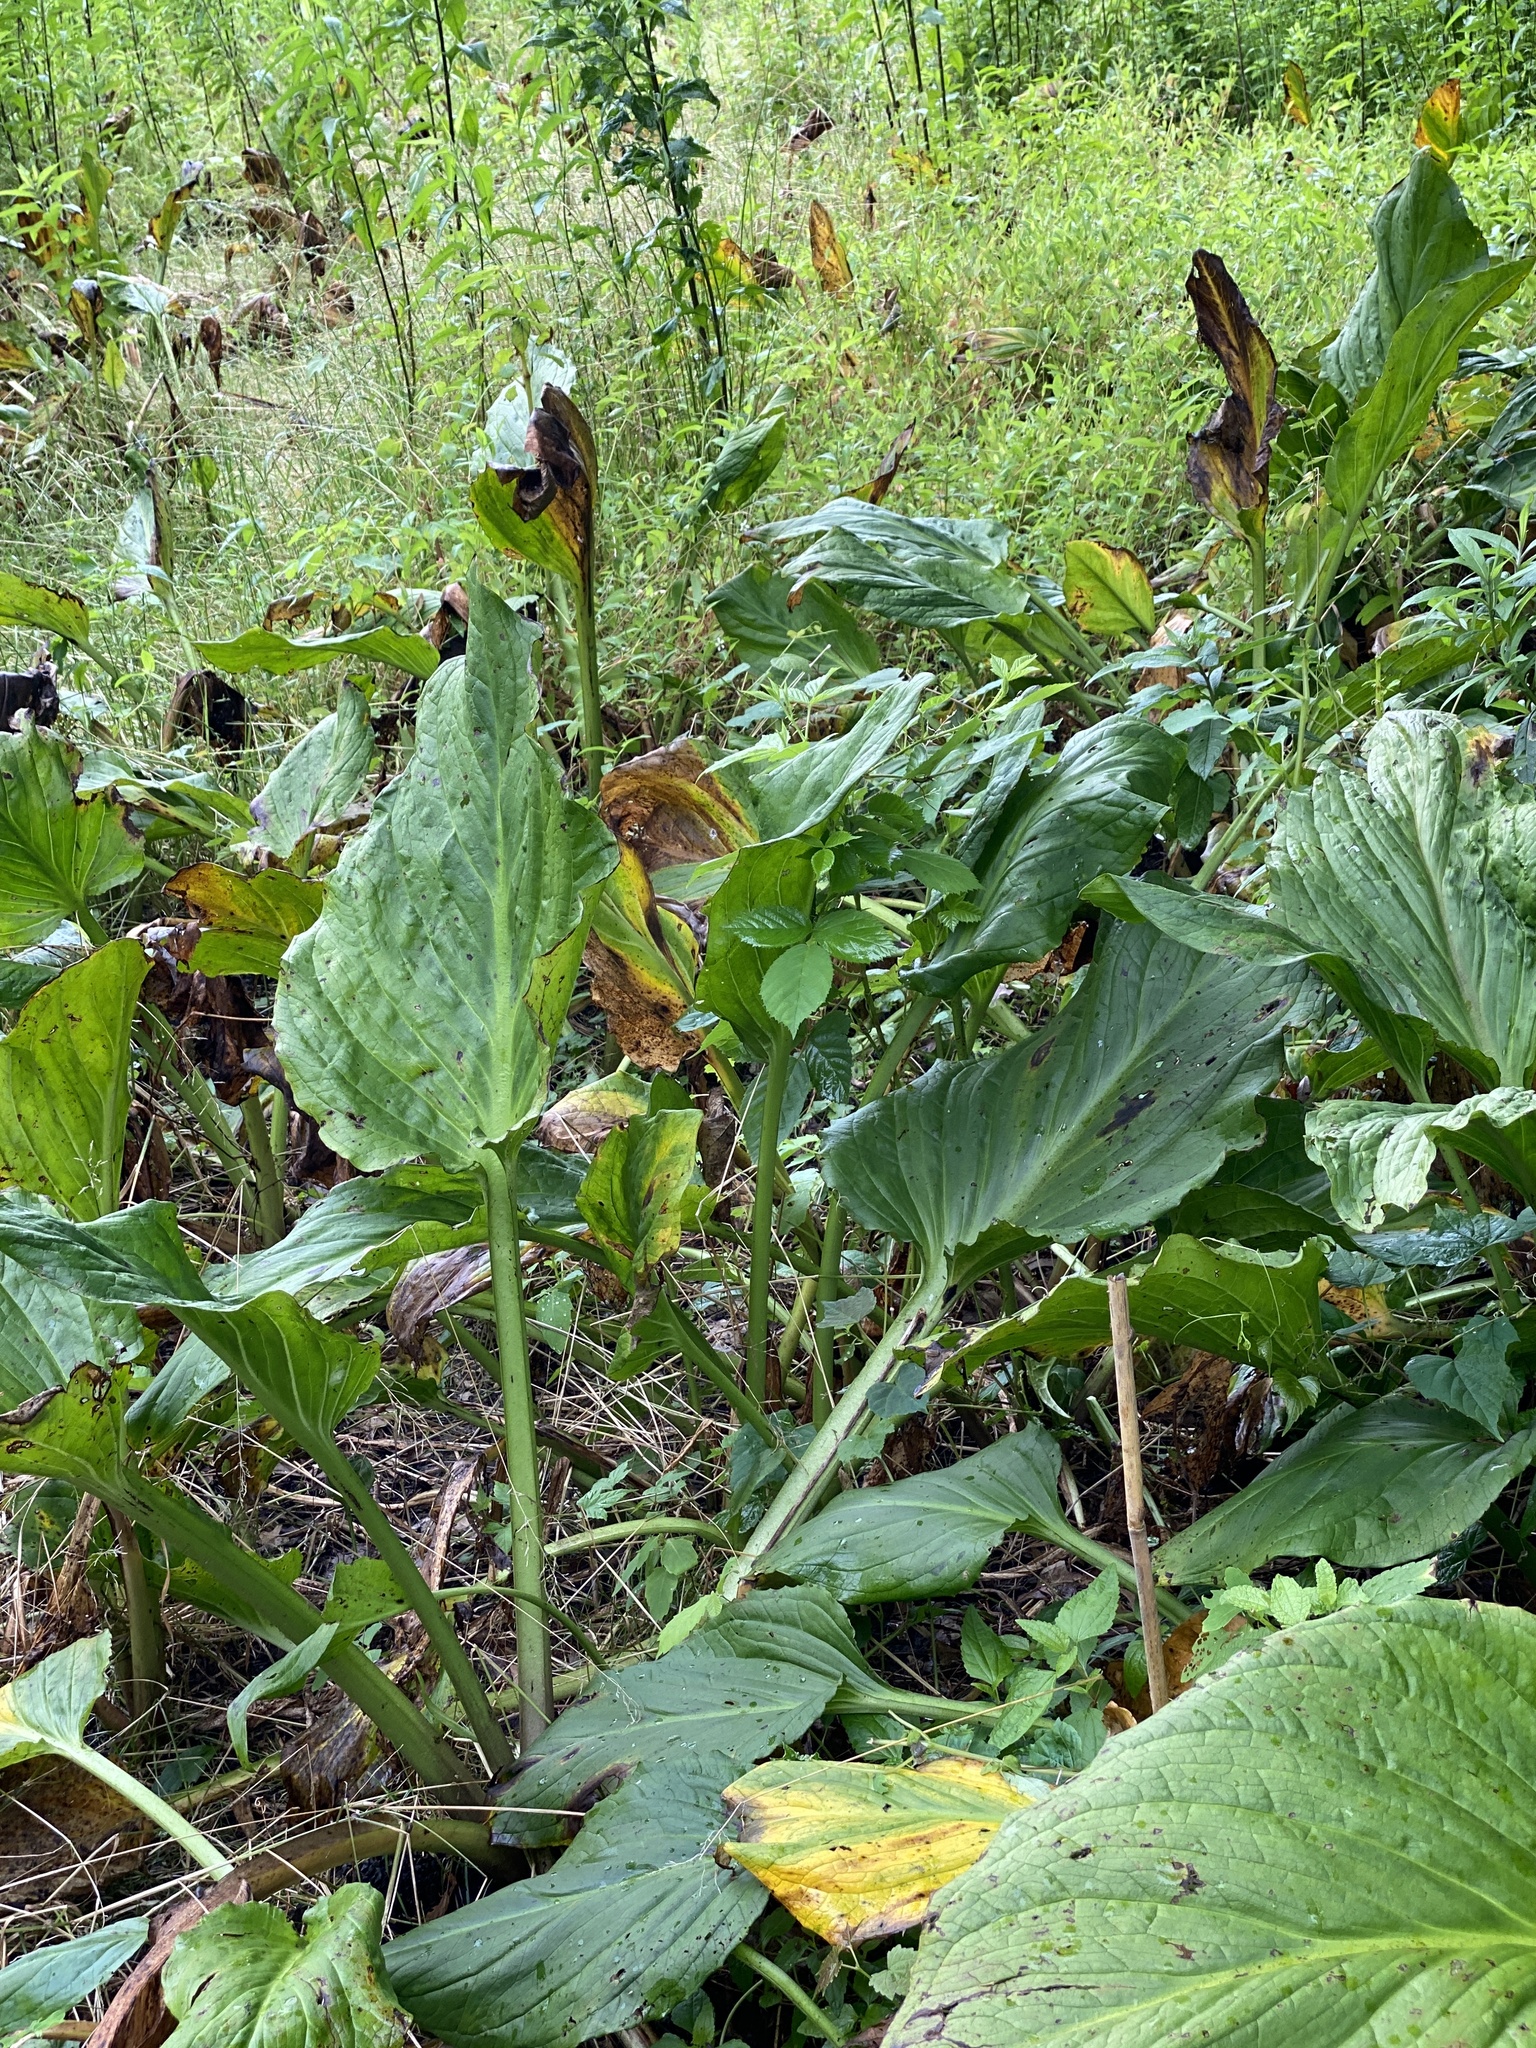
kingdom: Plantae
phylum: Tracheophyta
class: Liliopsida
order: Alismatales
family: Araceae
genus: Symplocarpus
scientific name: Symplocarpus foetidus
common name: Eastern skunk cabbage
